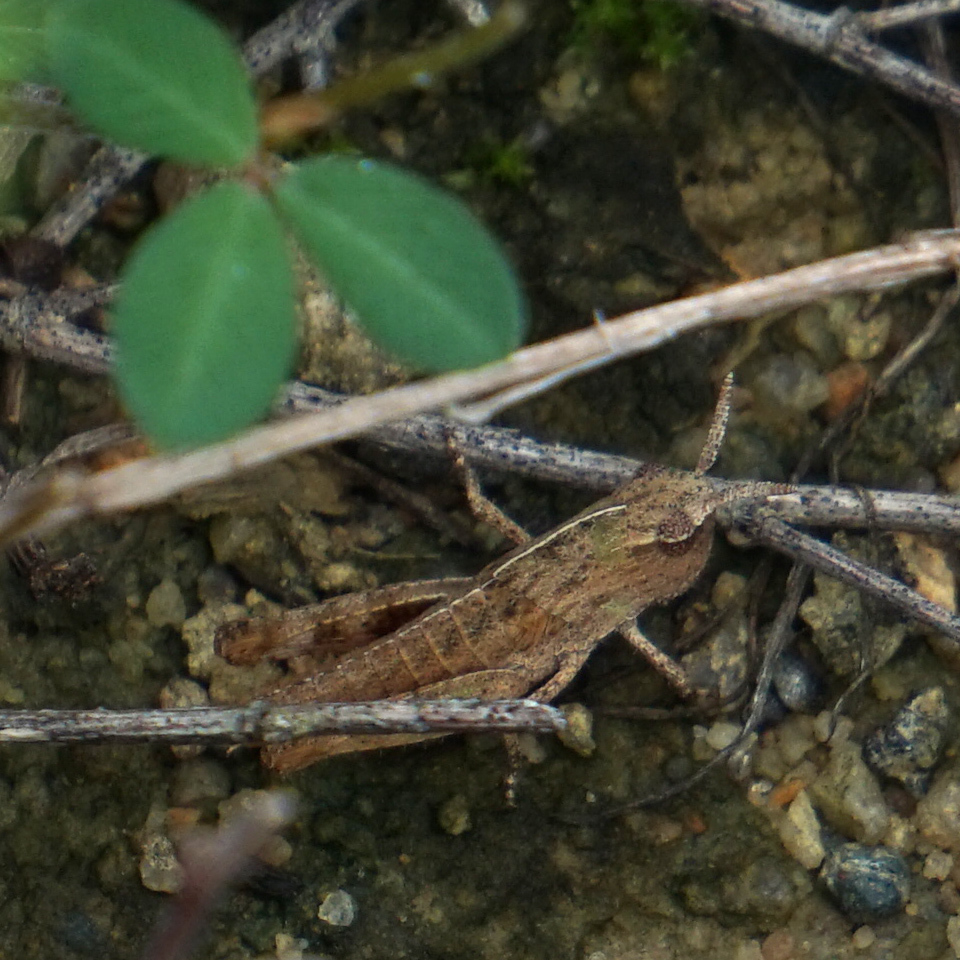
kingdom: Animalia
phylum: Arthropoda
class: Insecta
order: Orthoptera
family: Acrididae
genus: Chortophaga
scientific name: Chortophaga viridifasciata
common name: Green-striped grasshopper
